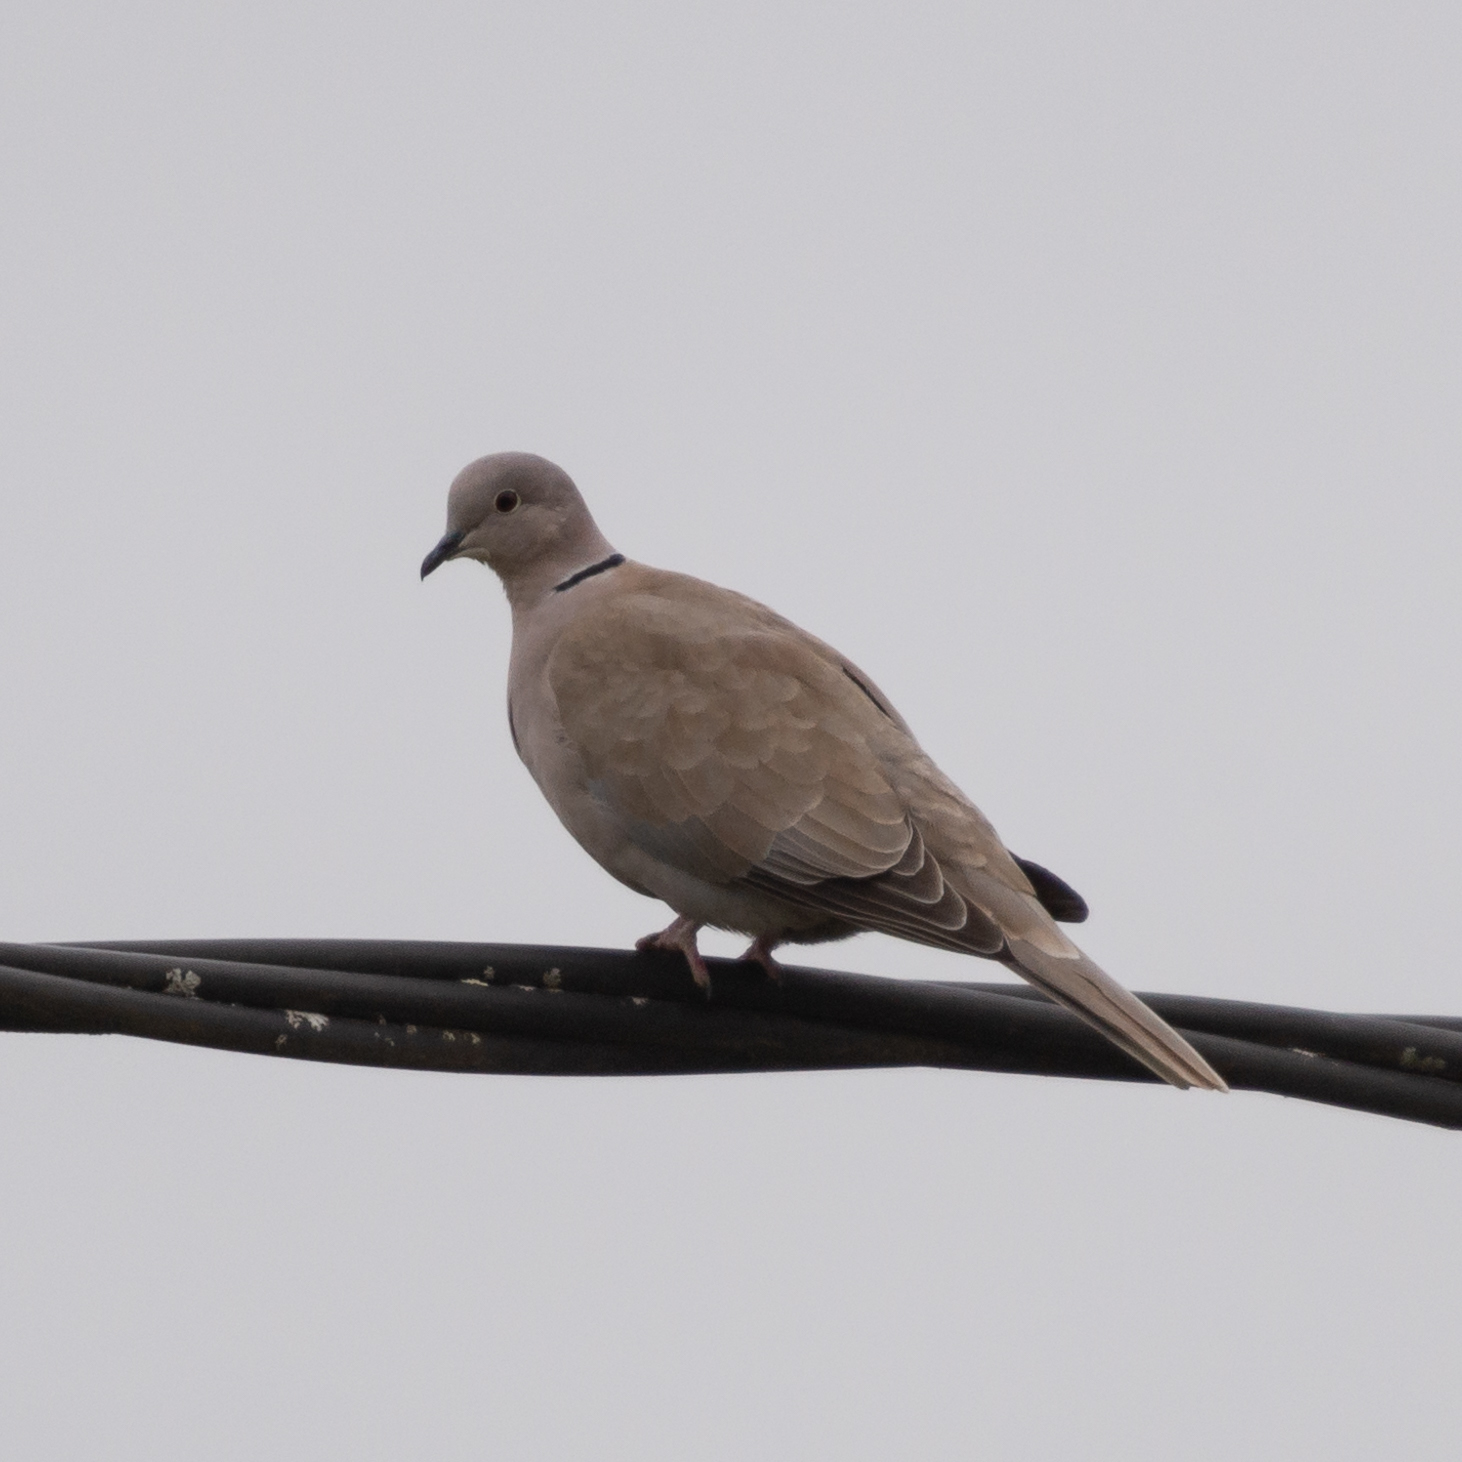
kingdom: Animalia
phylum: Chordata
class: Aves
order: Columbiformes
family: Columbidae
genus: Streptopelia
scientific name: Streptopelia decaocto
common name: Eurasian collared dove
